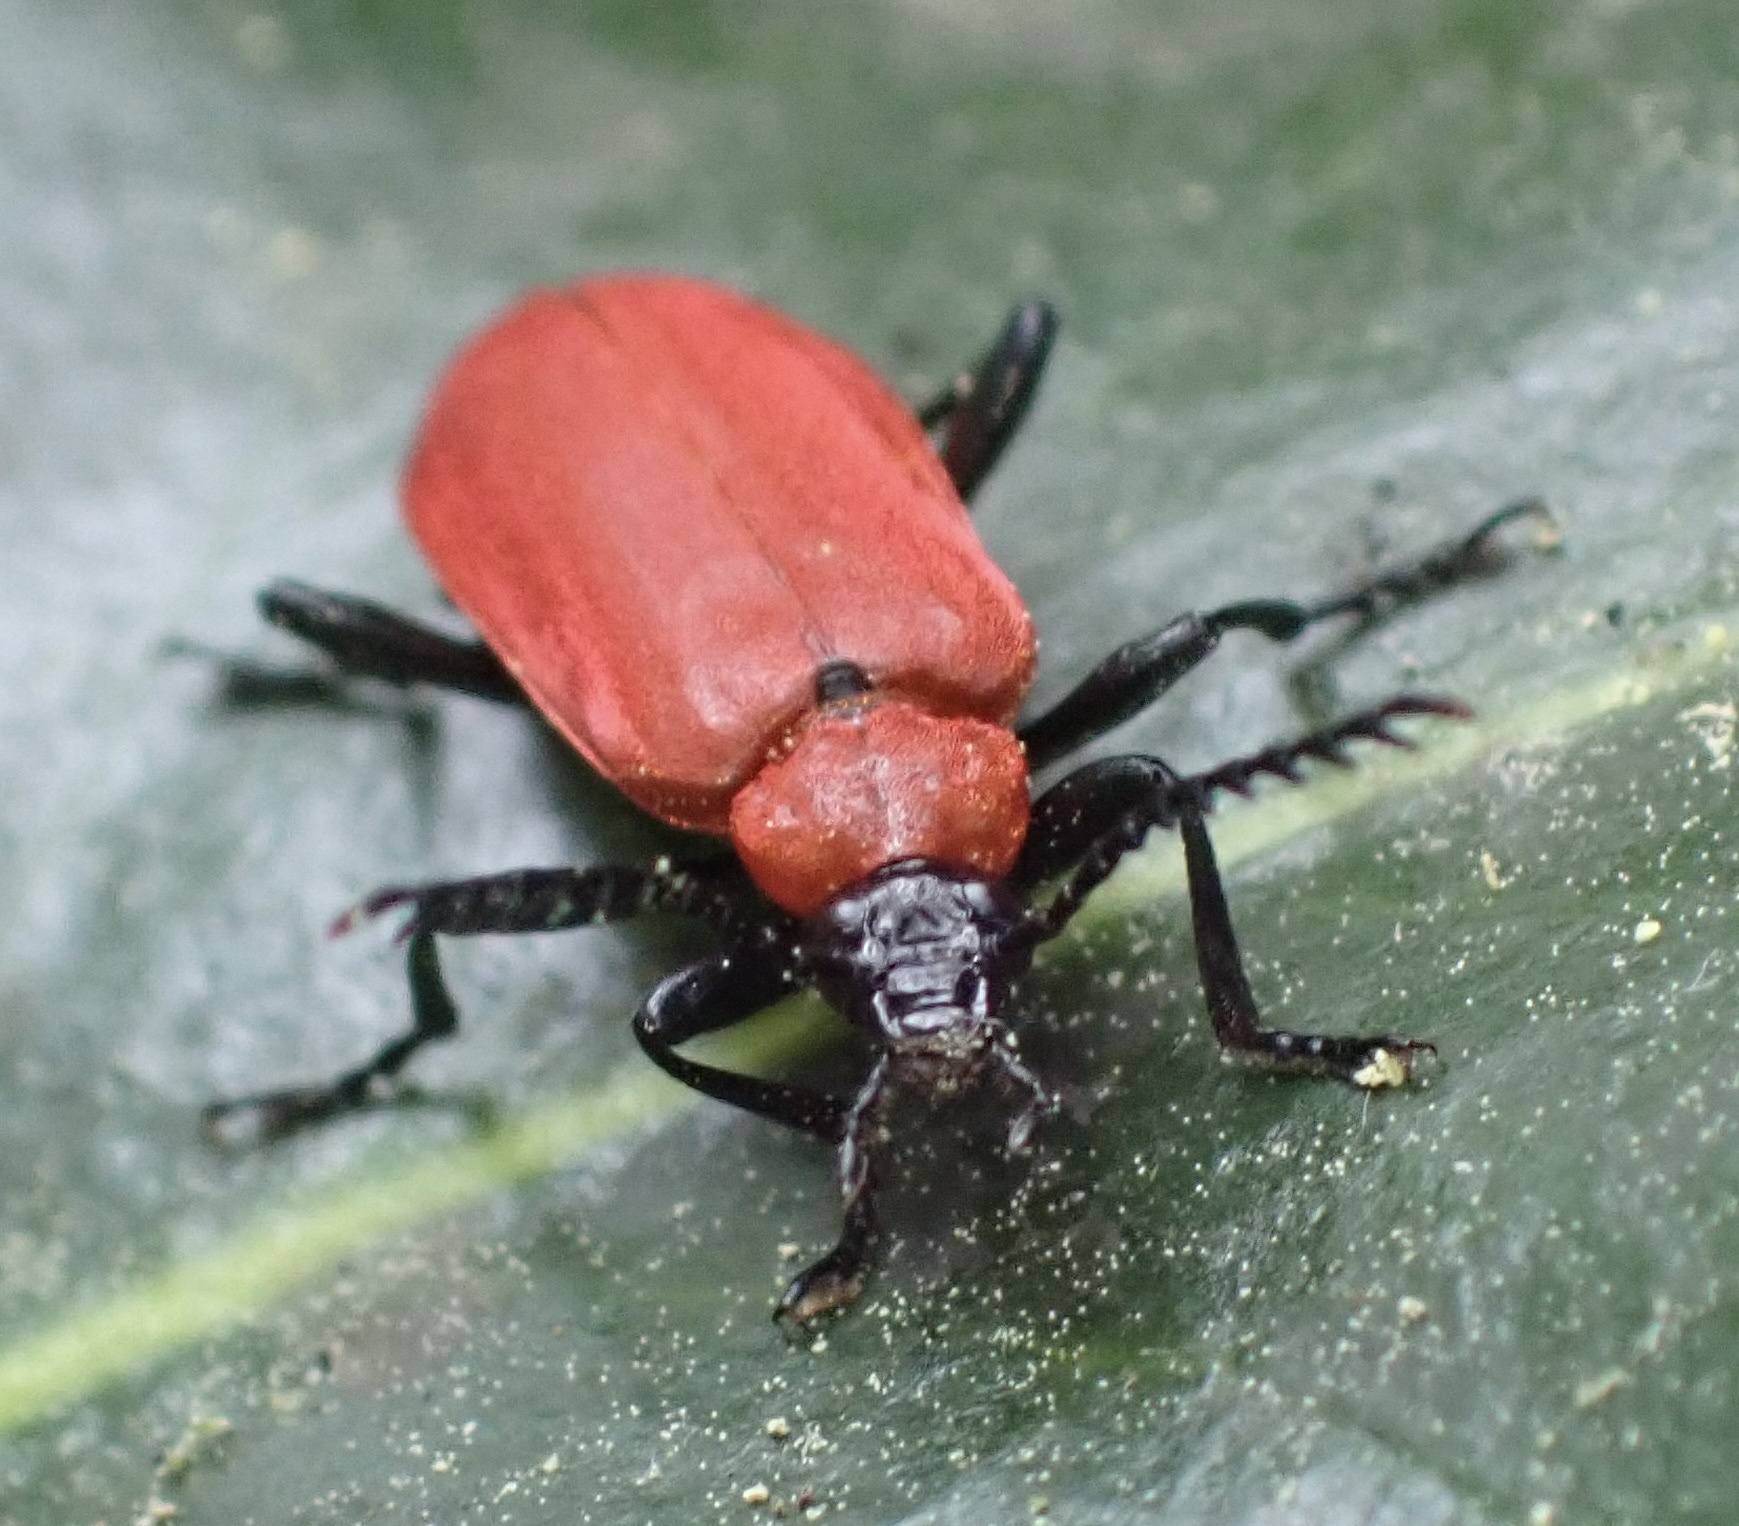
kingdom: Animalia
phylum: Arthropoda
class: Insecta
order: Coleoptera
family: Pyrochroidae
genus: Pyrochroa
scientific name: Pyrochroa coccinea
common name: Black-headed cardinal beetle
